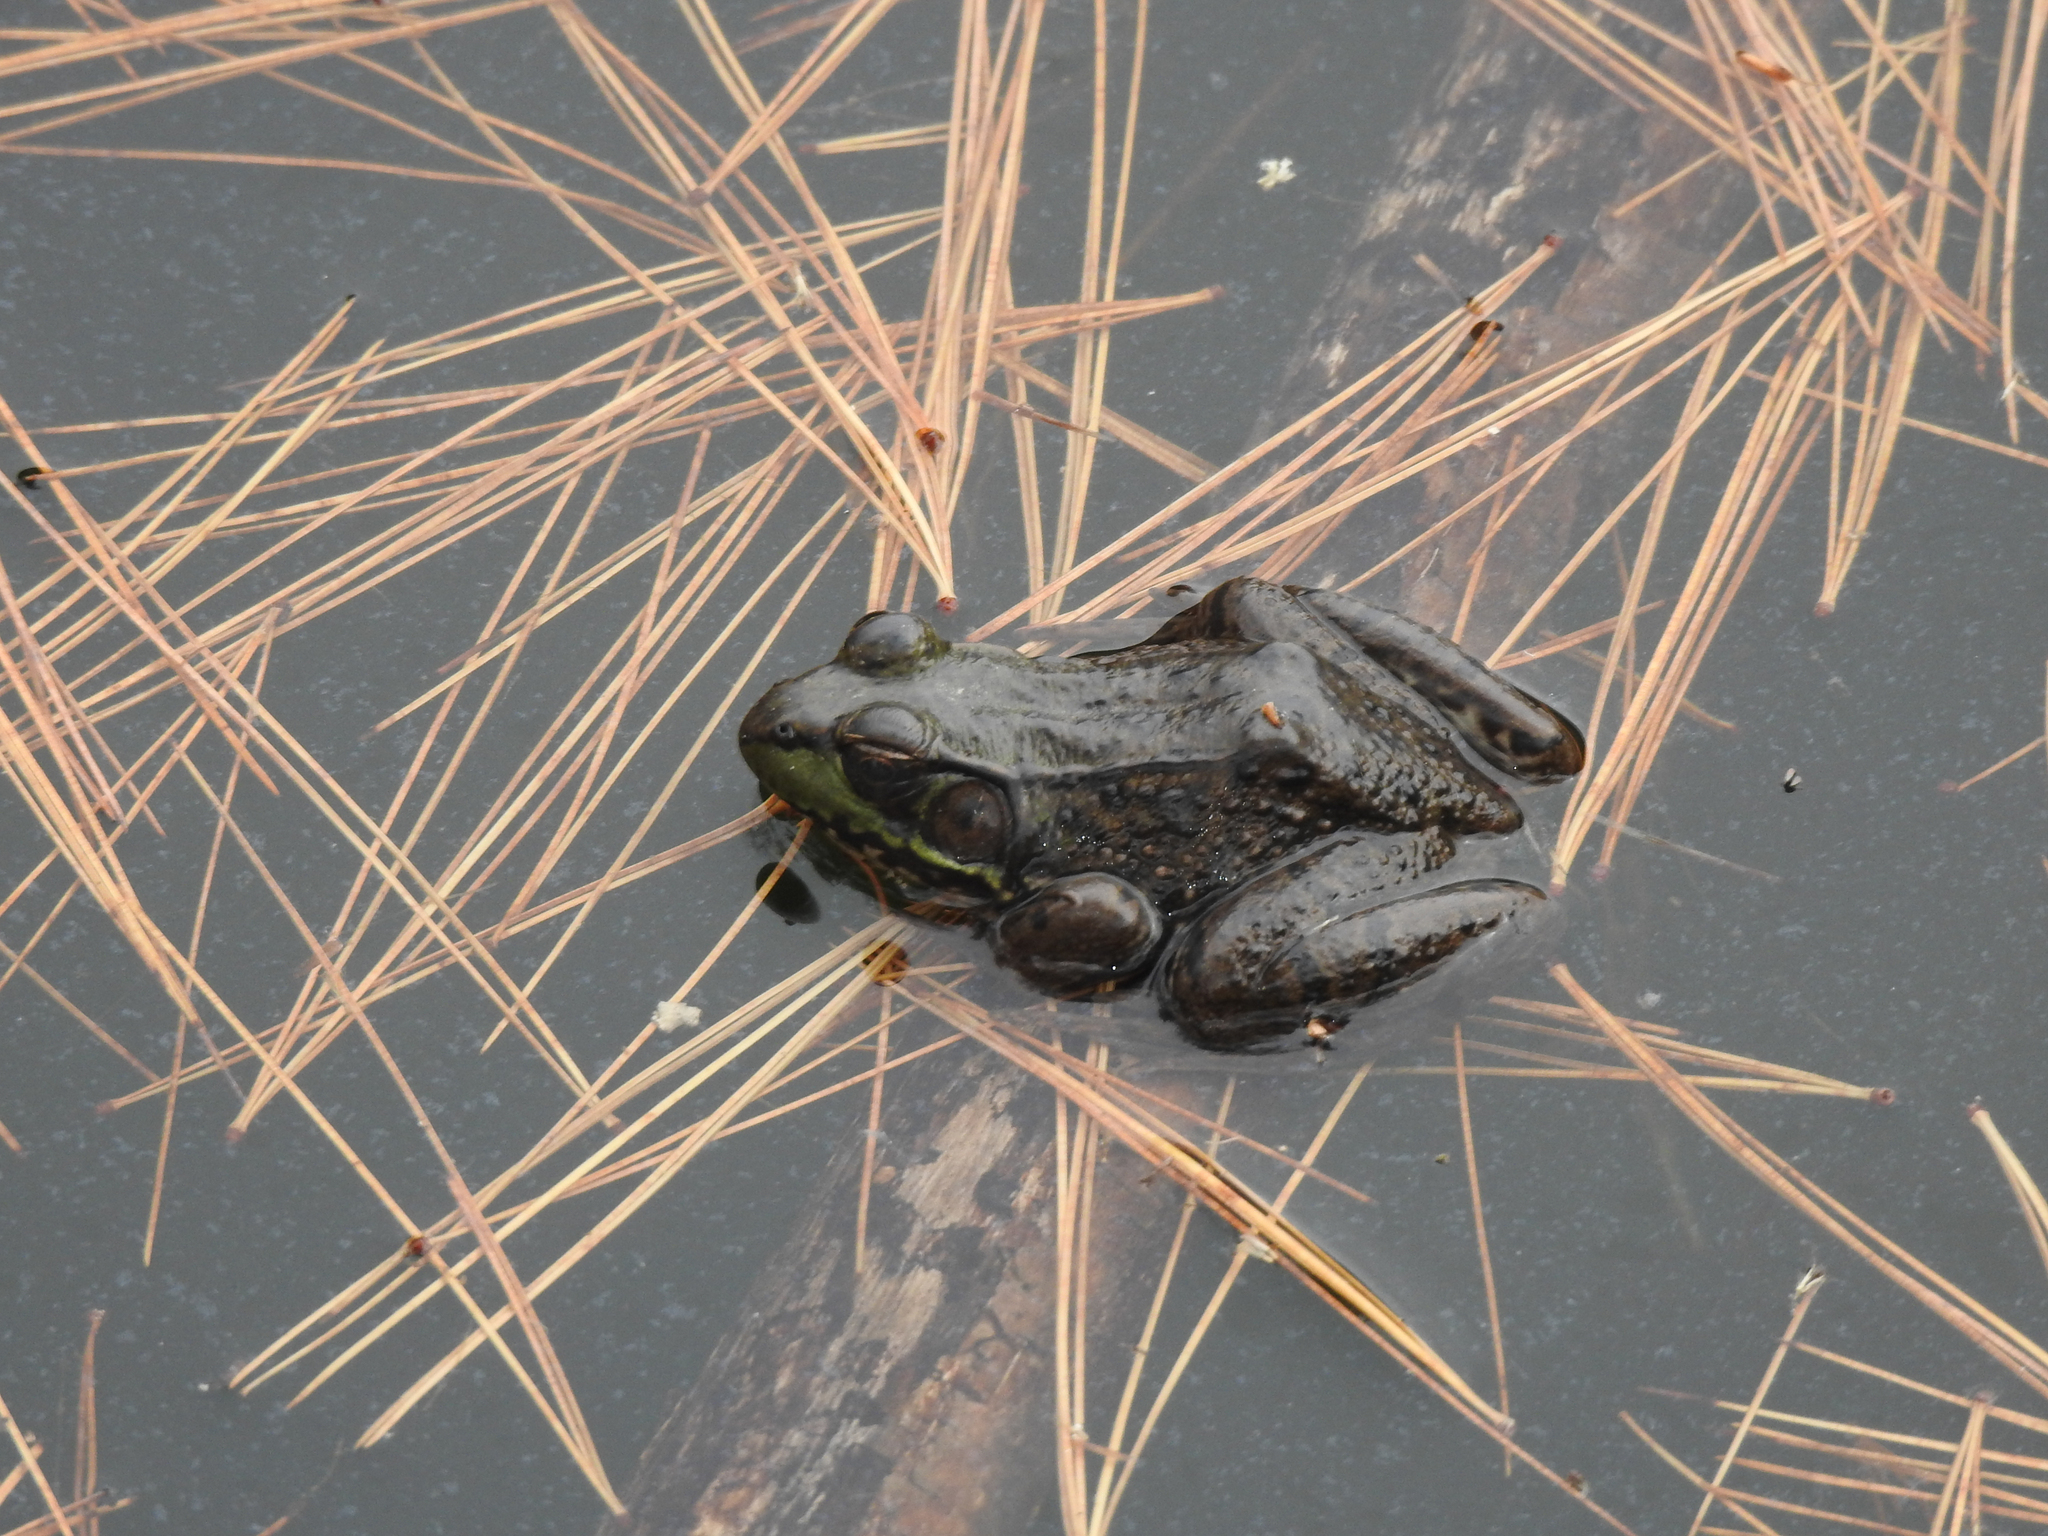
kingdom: Animalia
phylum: Chordata
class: Amphibia
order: Anura
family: Ranidae
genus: Lithobates
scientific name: Lithobates clamitans
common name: Green frog
